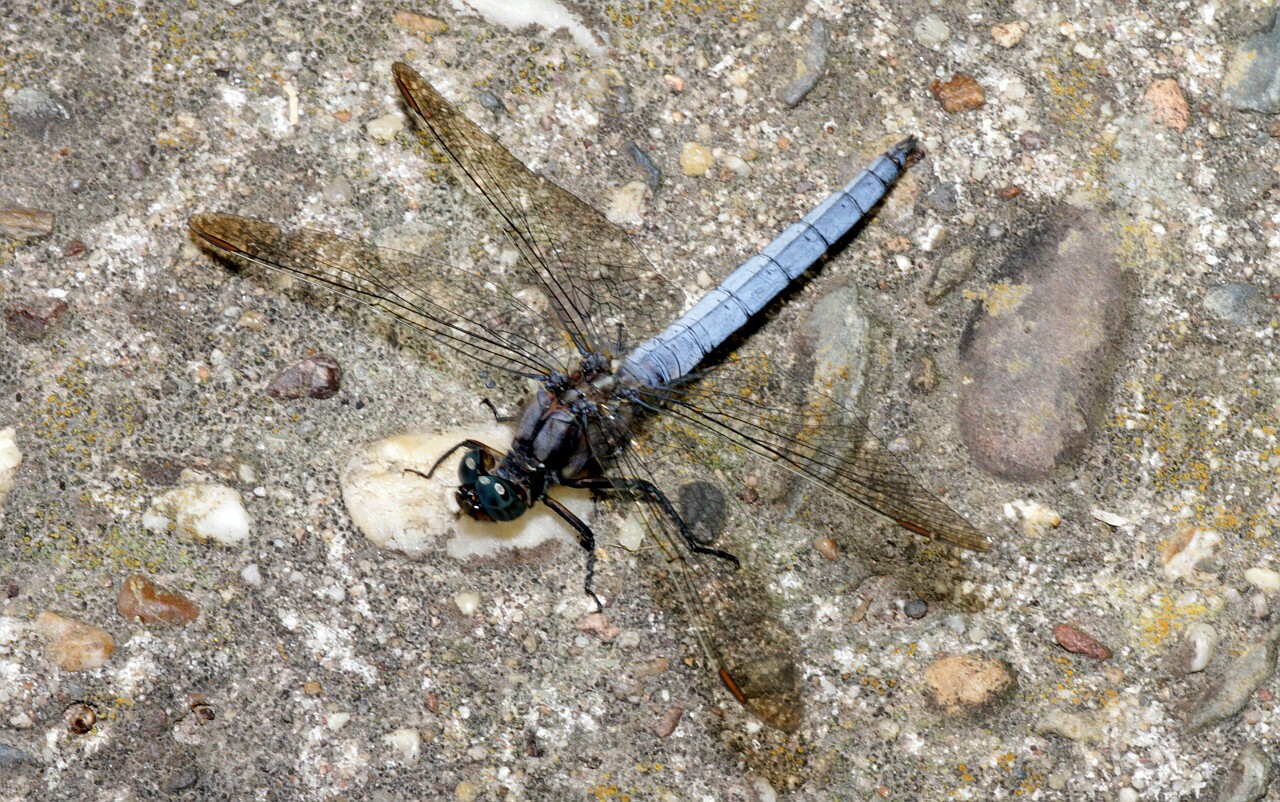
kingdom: Animalia
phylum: Arthropoda
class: Insecta
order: Odonata
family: Libellulidae
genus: Orthetrum
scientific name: Orthetrum coerulescens
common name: Keeled skimmer
